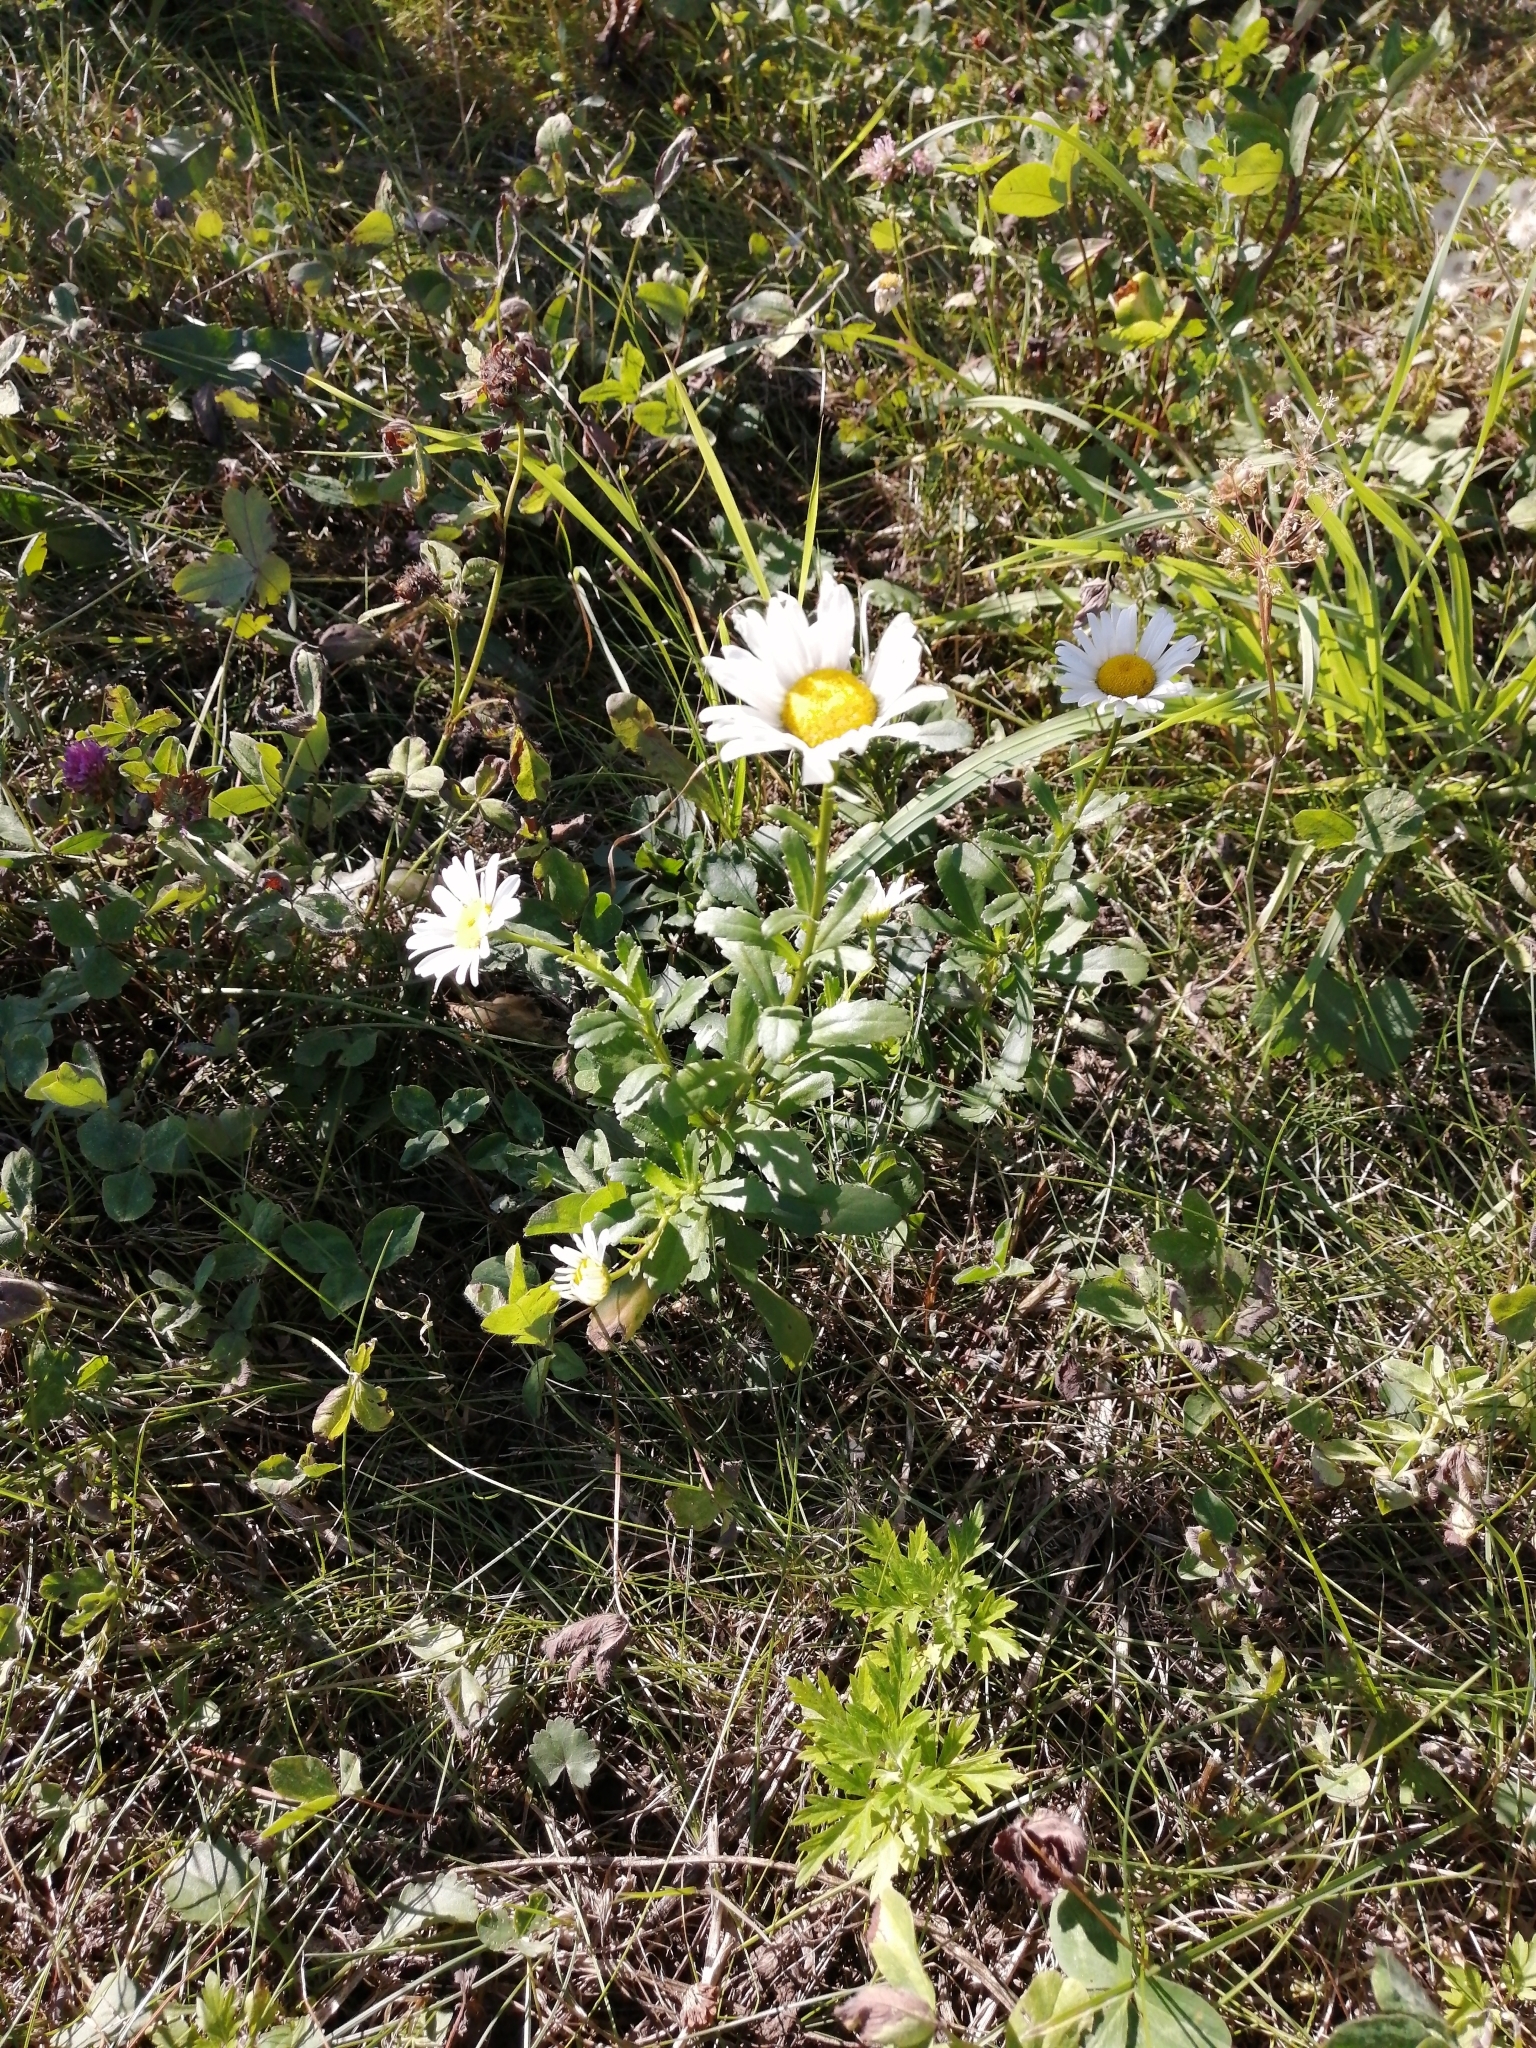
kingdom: Plantae
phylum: Tracheophyta
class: Magnoliopsida
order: Asterales
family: Asteraceae
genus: Leucanthemum
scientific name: Leucanthemum ircutianum
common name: Daisy
